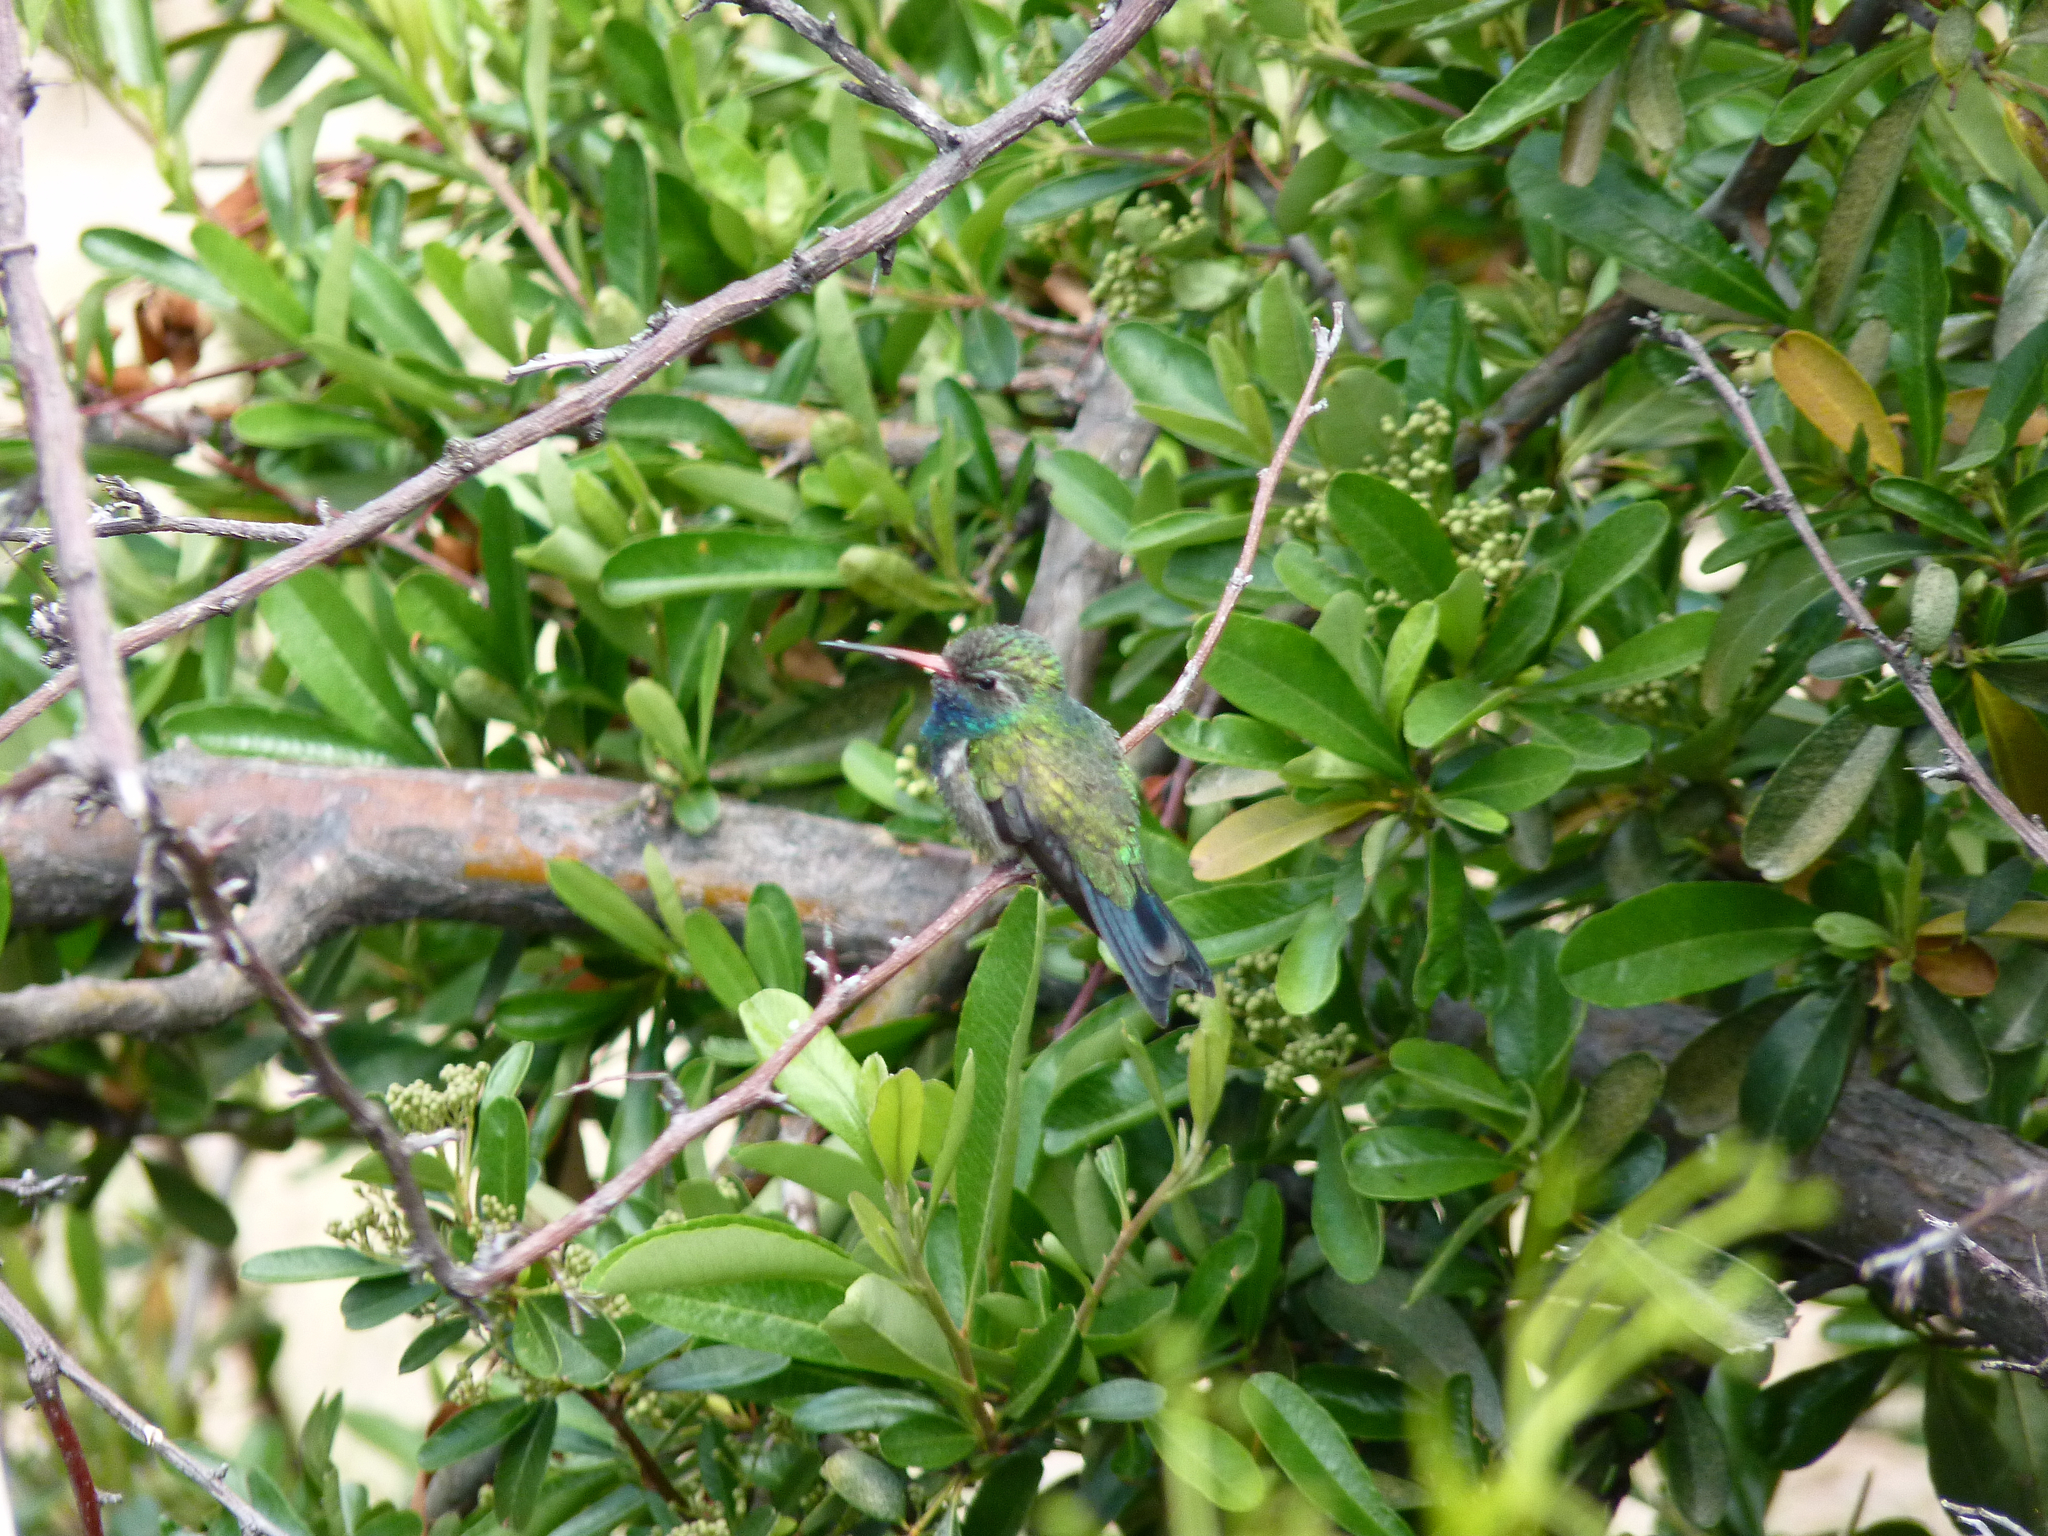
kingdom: Animalia
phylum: Chordata
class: Aves
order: Apodiformes
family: Trochilidae
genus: Cynanthus
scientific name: Cynanthus latirostris
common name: Broad-billed hummingbird
